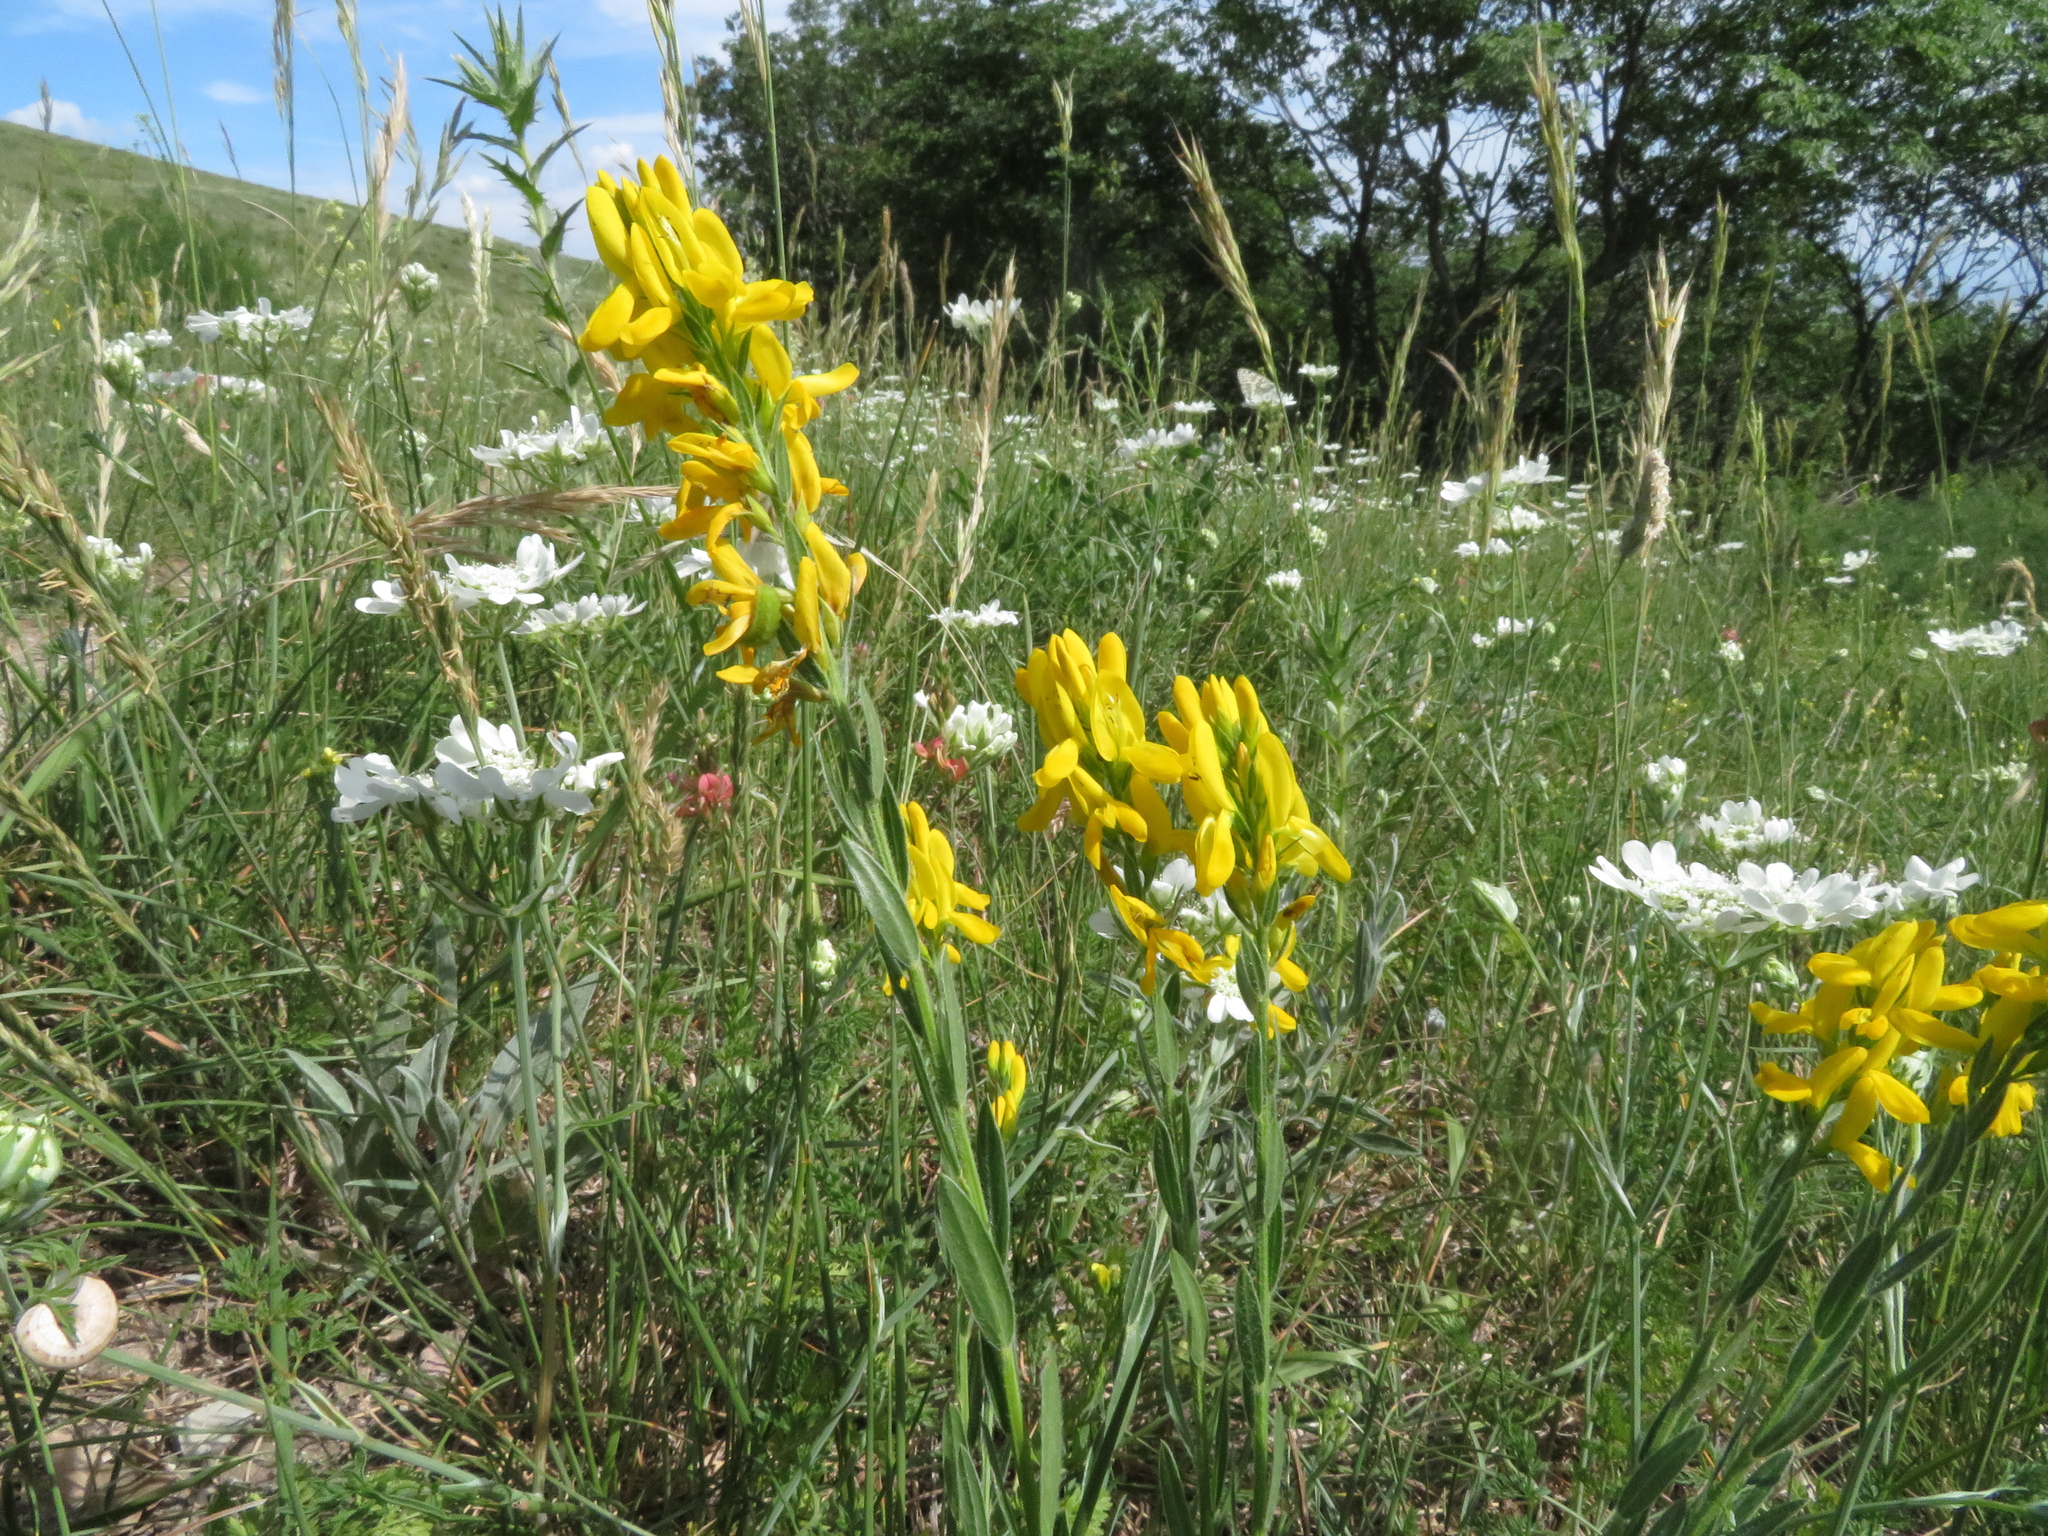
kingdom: Plantae
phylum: Tracheophyta
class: Magnoliopsida
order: Fabales
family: Fabaceae
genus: Genista
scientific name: Genista tinctoria
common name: Dyer's greenweed
